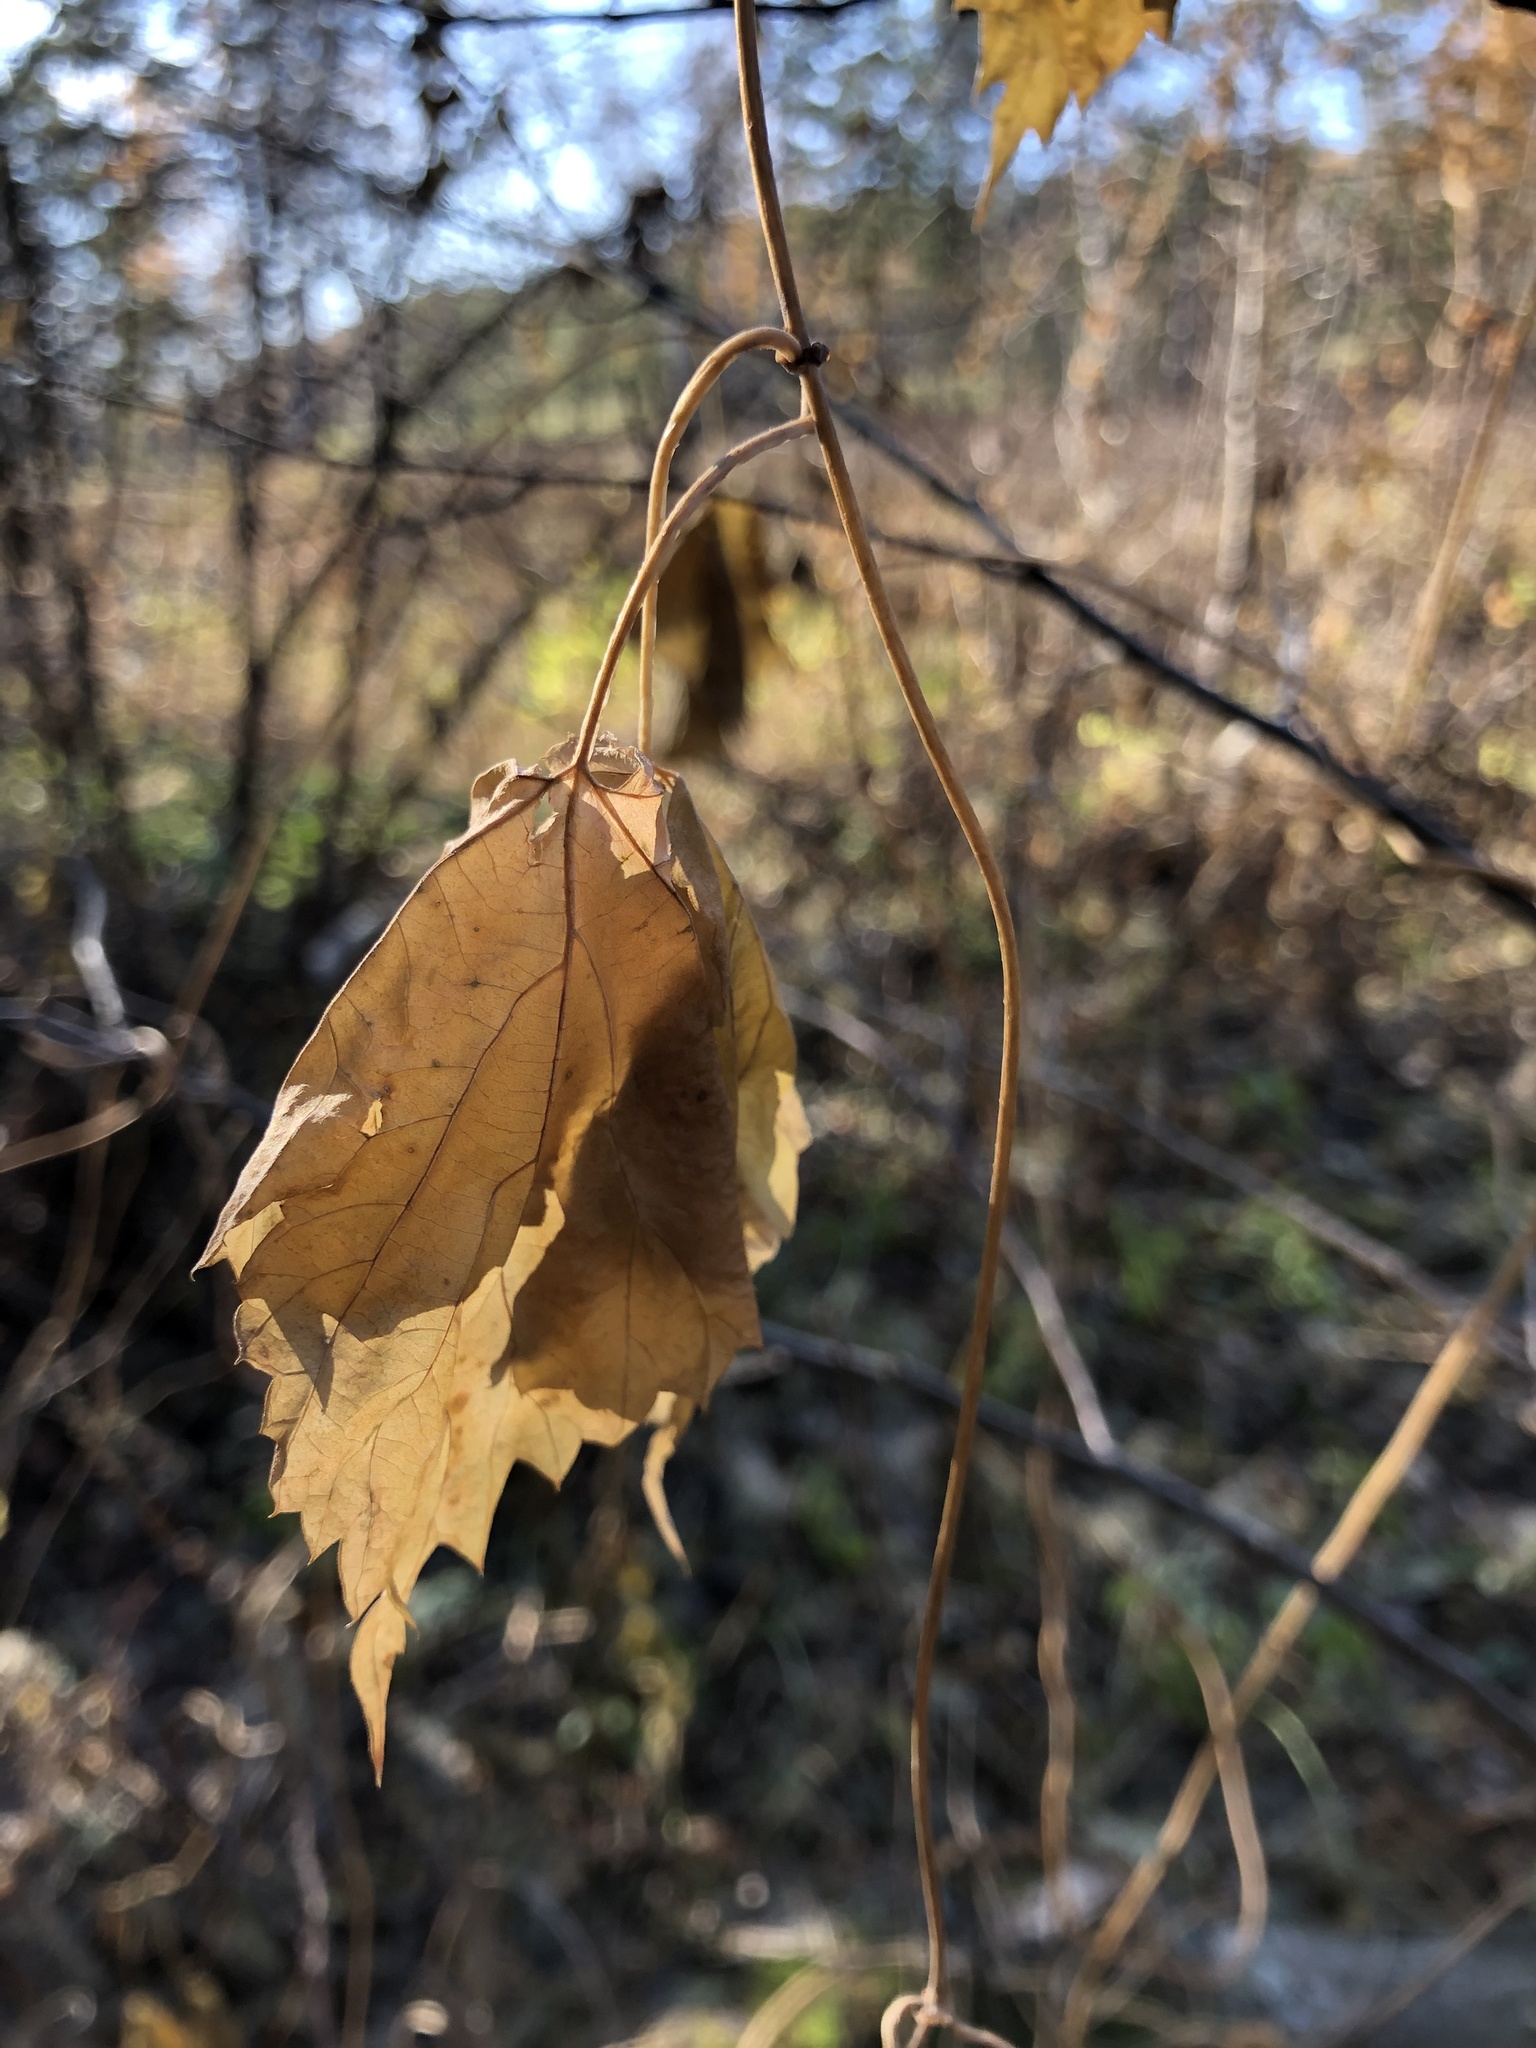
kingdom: Plantae
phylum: Tracheophyta
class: Magnoliopsida
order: Rosales
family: Cannabaceae
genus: Humulus
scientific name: Humulus lupulus
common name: Hop
